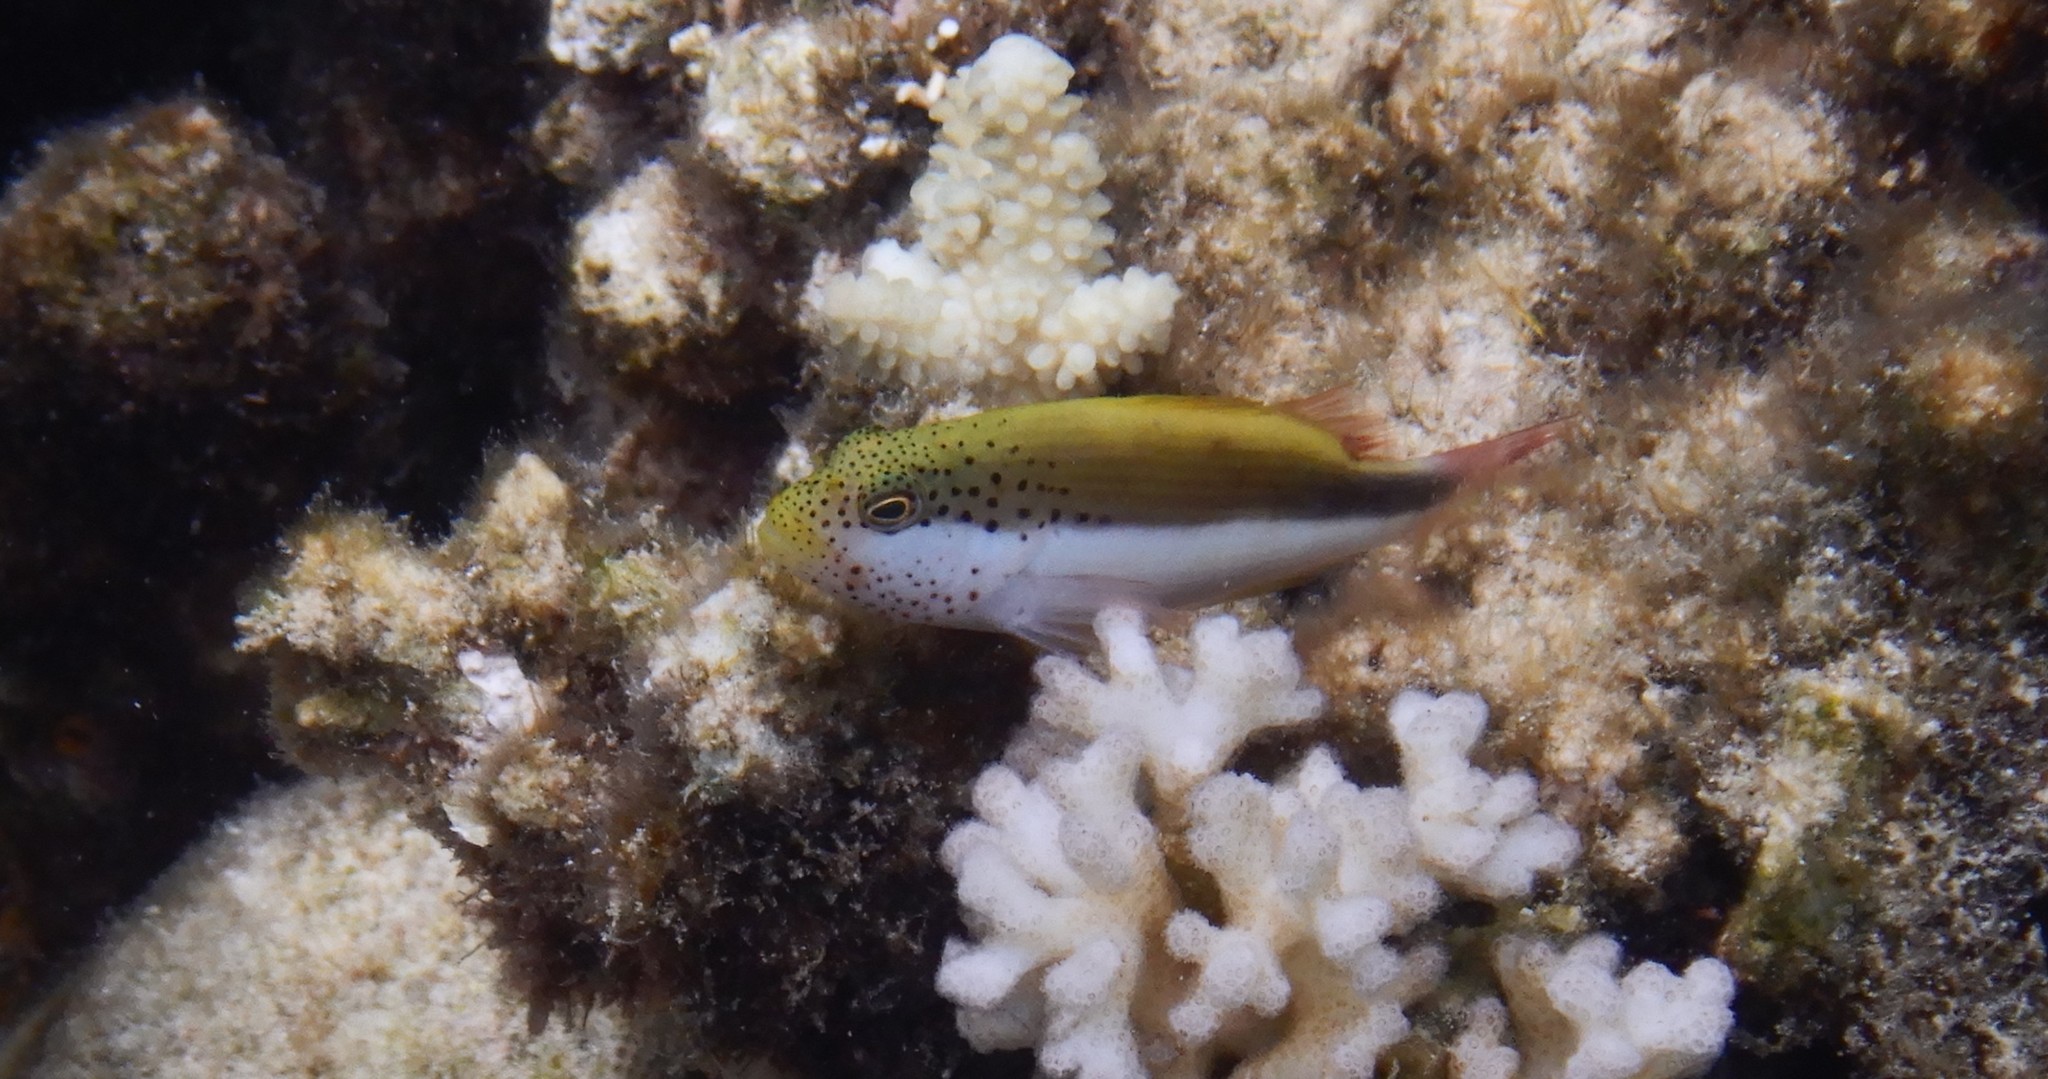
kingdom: Animalia
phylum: Chordata
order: Perciformes
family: Cirrhitidae
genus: Paracirrhites
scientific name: Paracirrhites forsteri
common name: Freckled hawkfish
